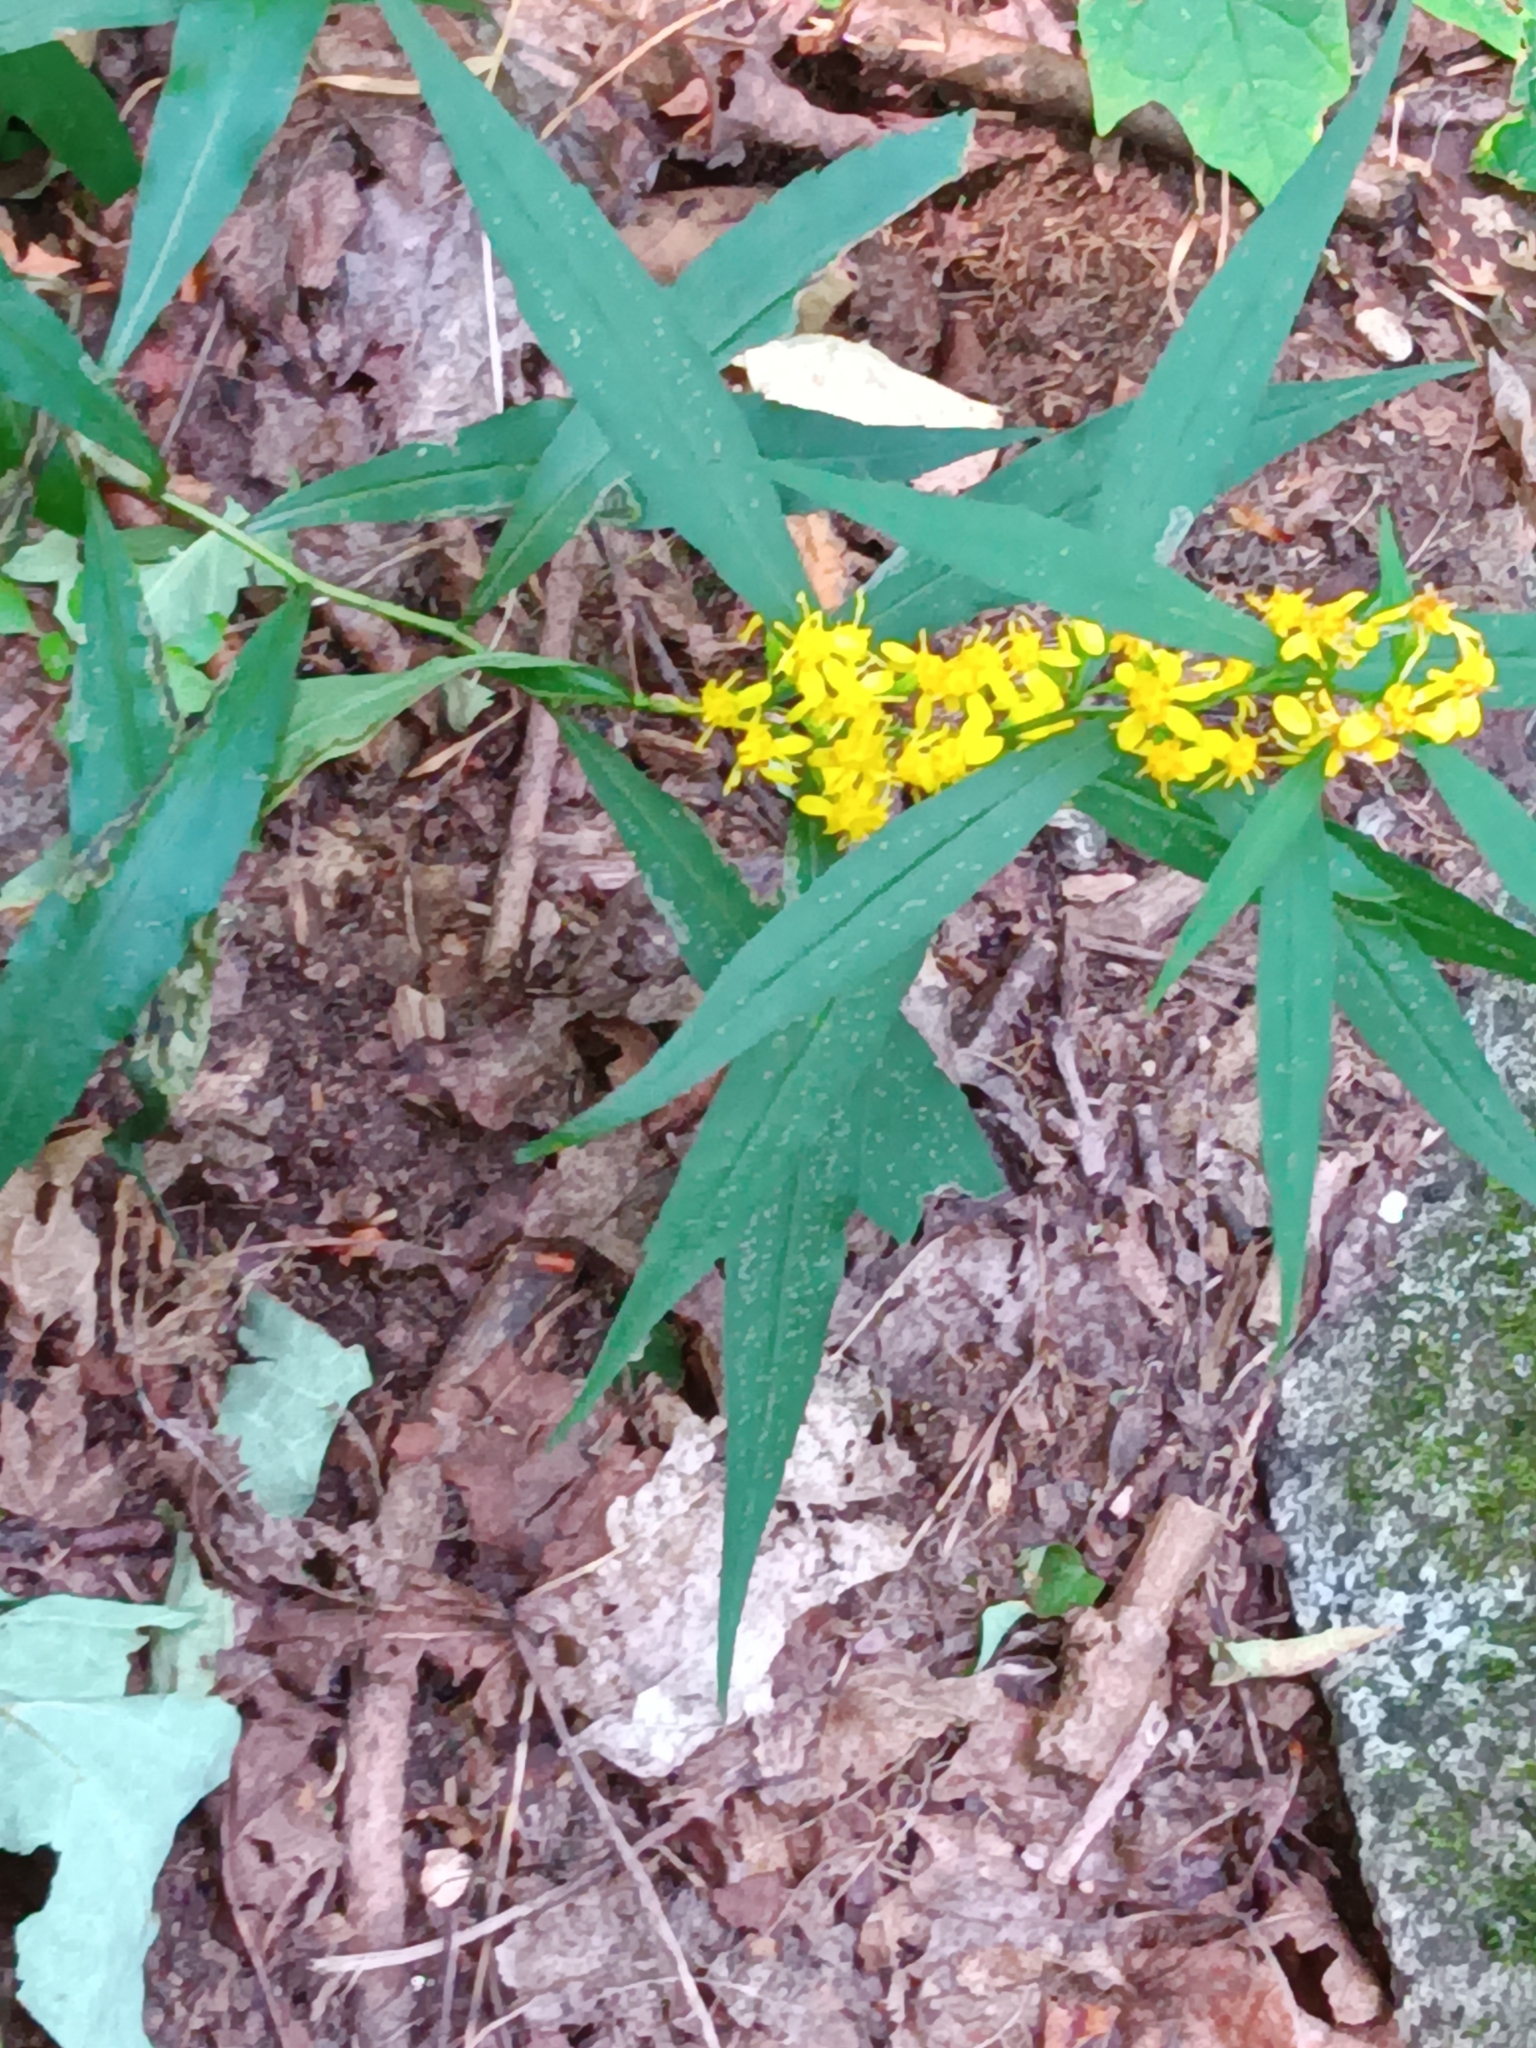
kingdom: Plantae
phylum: Tracheophyta
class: Magnoliopsida
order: Asterales
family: Asteraceae
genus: Solidago
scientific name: Solidago caesia
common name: Woodland goldenrod
